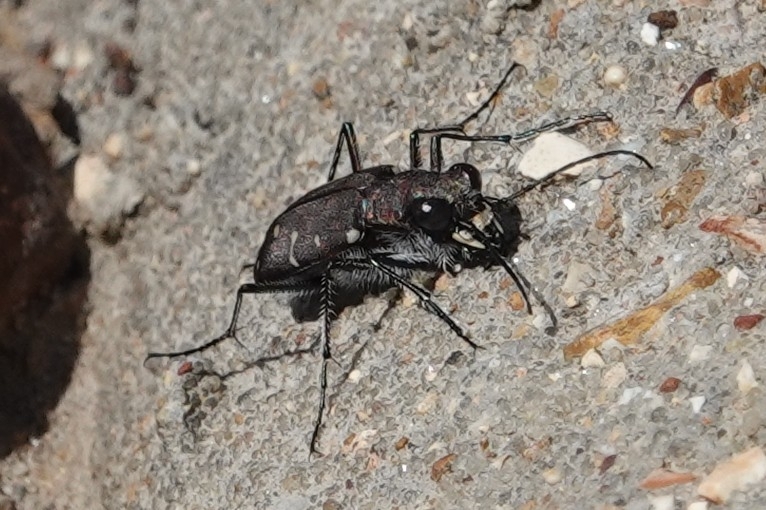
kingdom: Animalia
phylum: Arthropoda
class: Insecta
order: Coleoptera
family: Carabidae
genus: Cicindela
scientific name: Cicindela duodecimguttata
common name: Twelve-spotted tiger beetle
